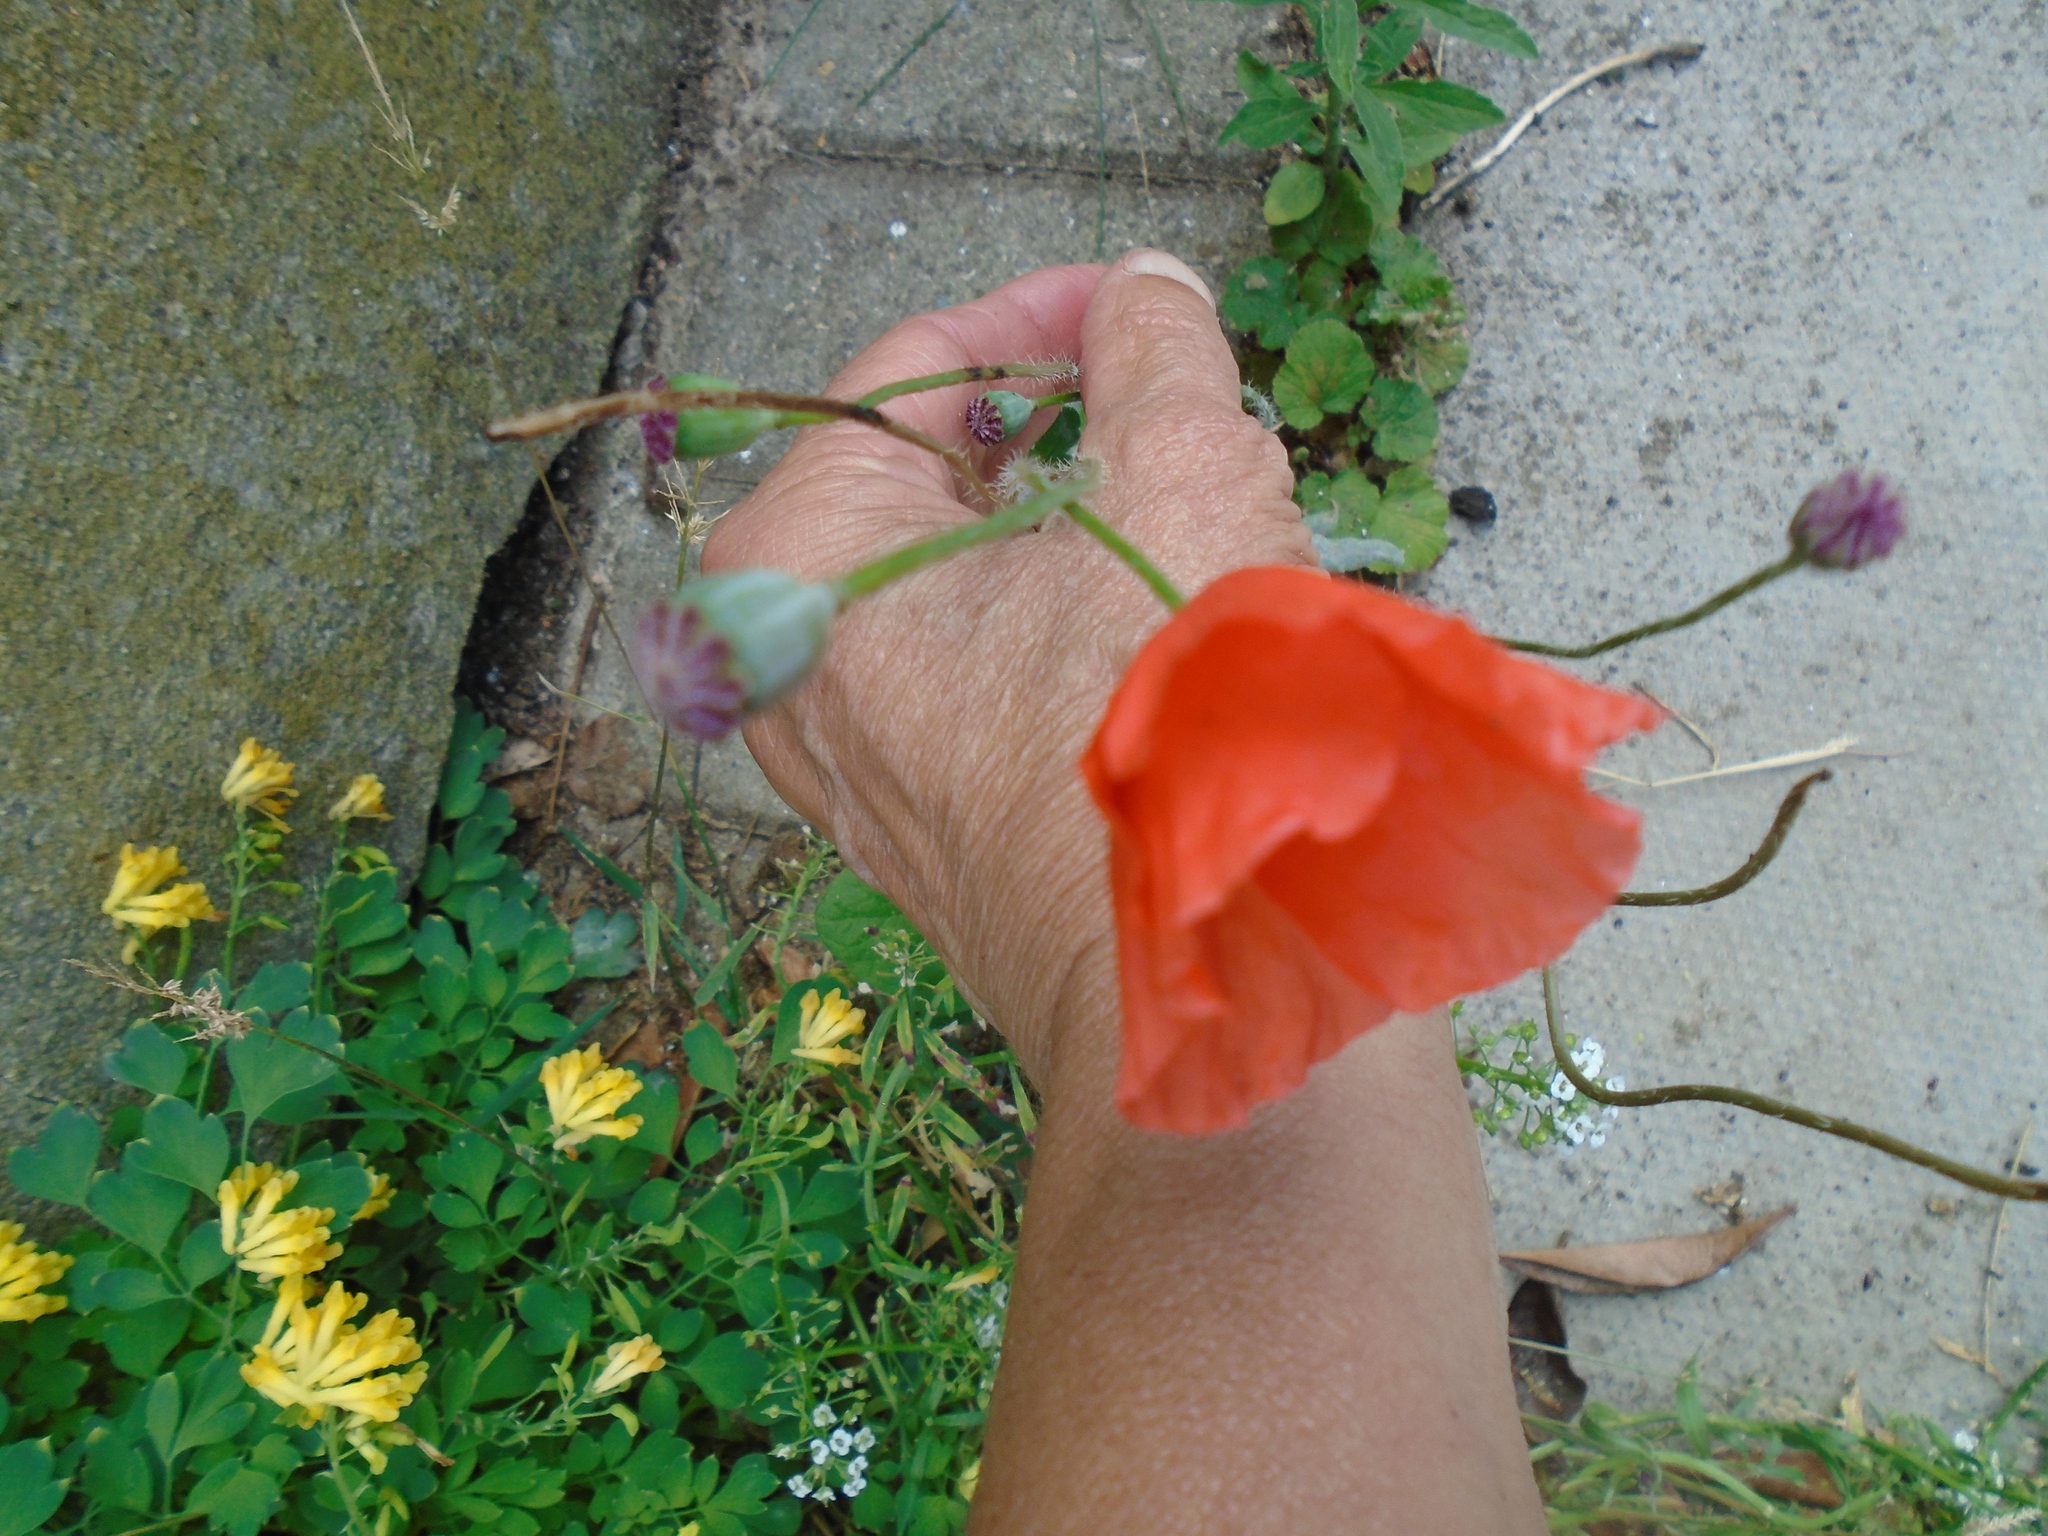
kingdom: Plantae
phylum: Tracheophyta
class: Magnoliopsida
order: Ranunculales
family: Papaveraceae
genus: Papaver
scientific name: Papaver rhoeas
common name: Corn poppy
